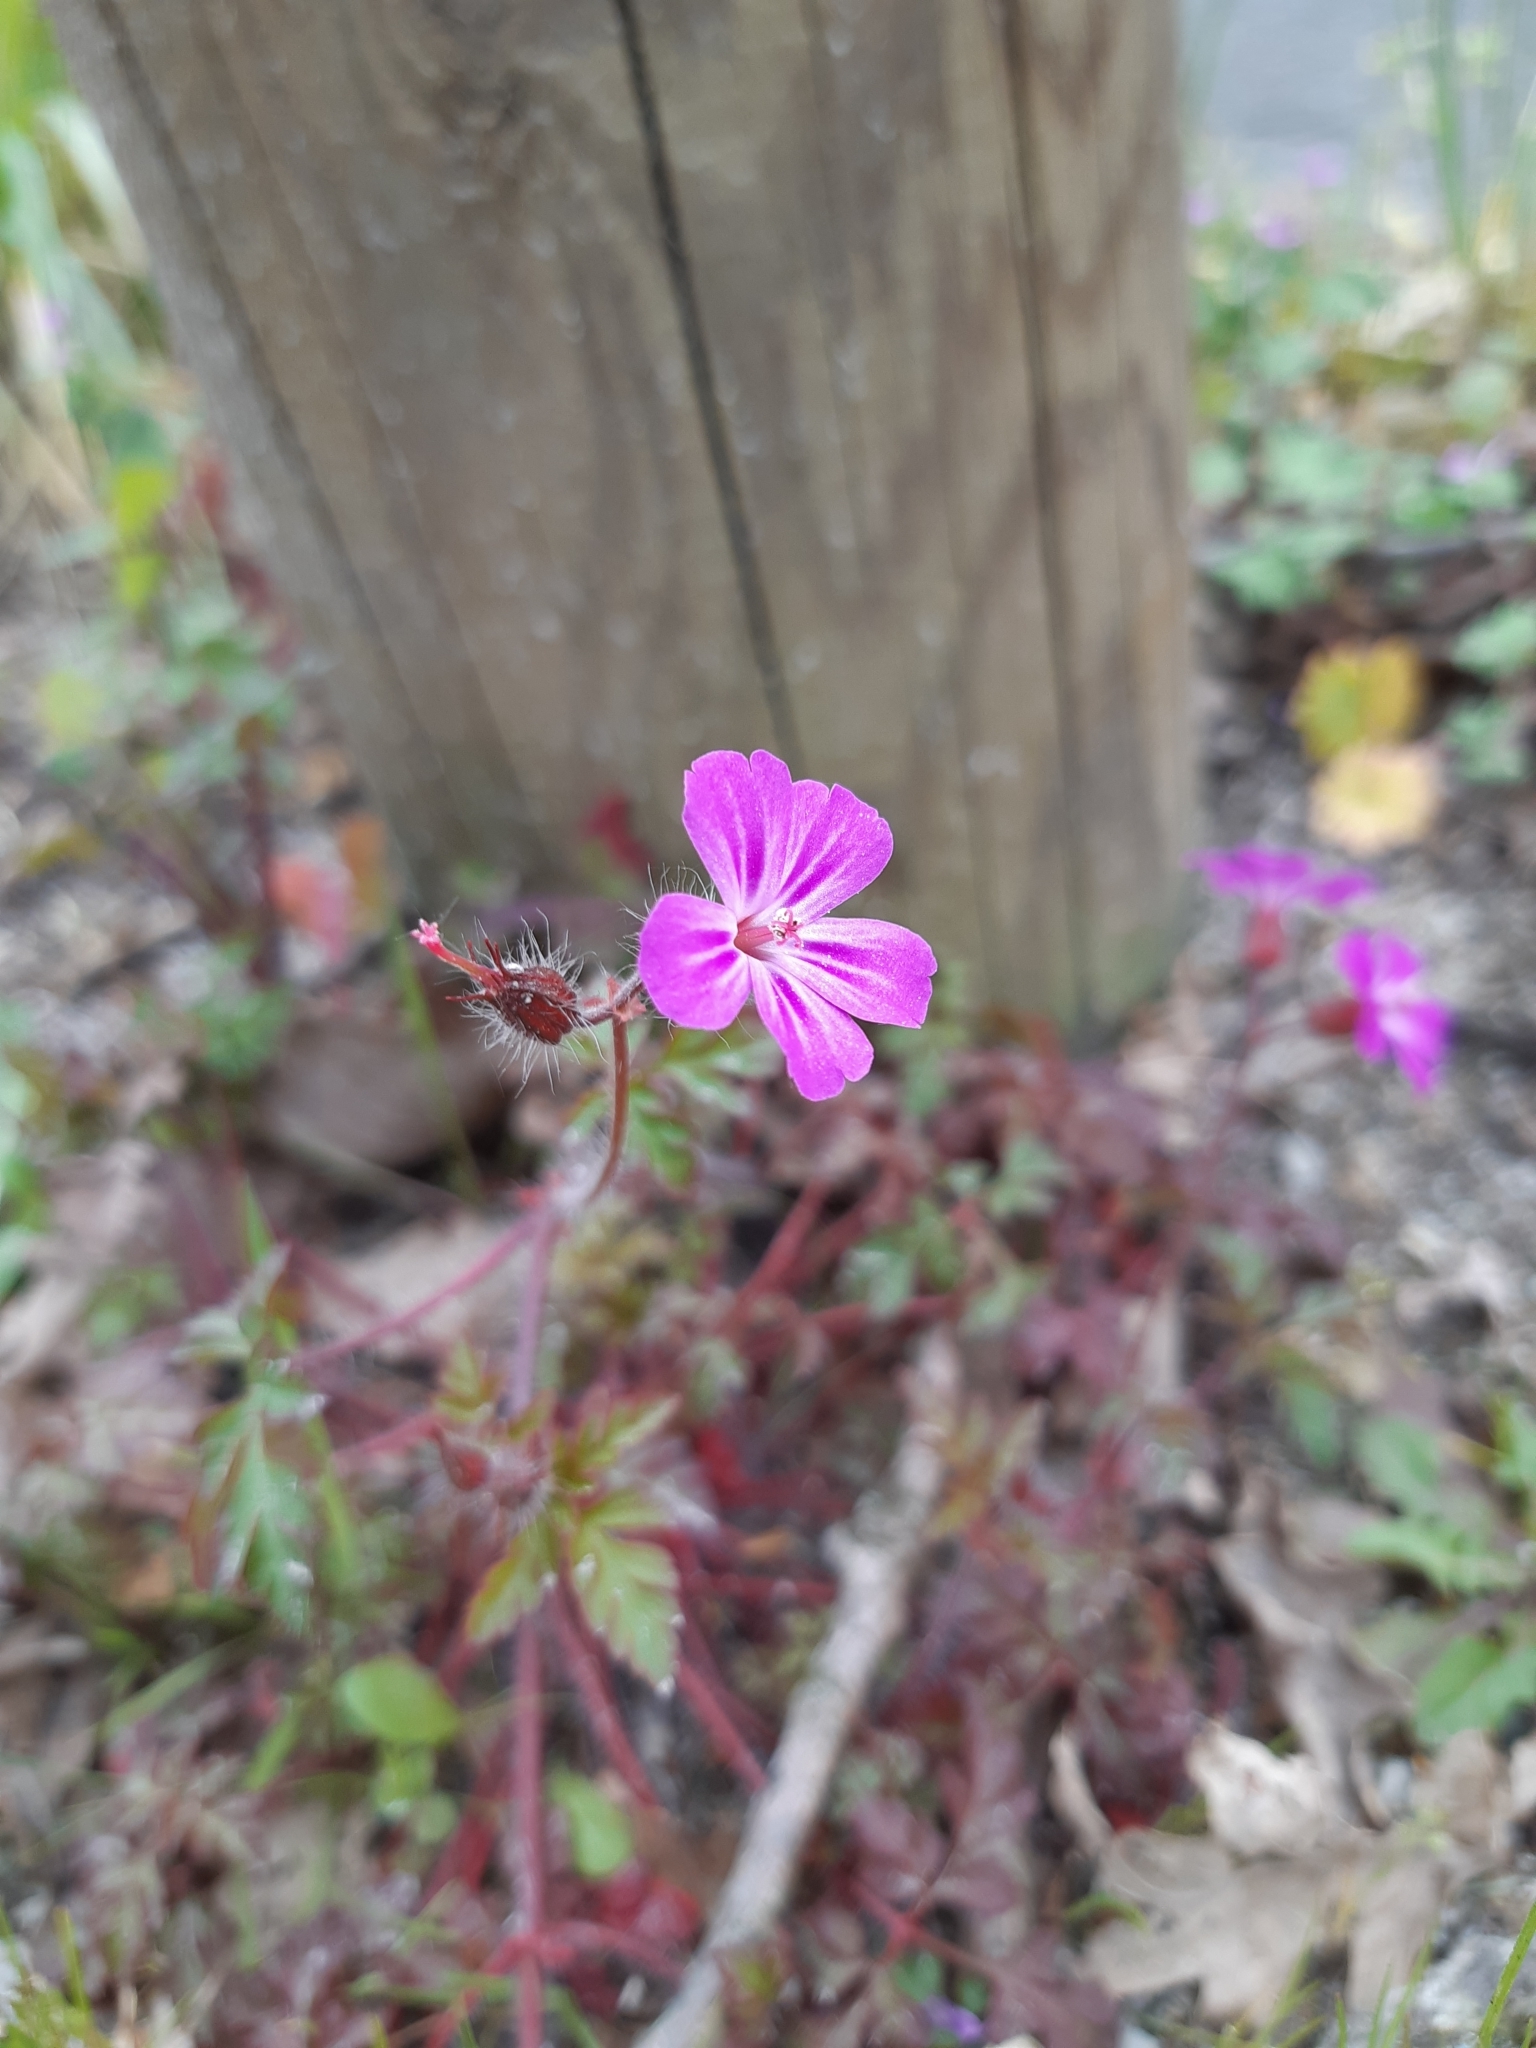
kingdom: Plantae
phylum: Tracheophyta
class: Magnoliopsida
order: Geraniales
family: Geraniaceae
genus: Geranium
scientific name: Geranium robertianum
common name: Herb-robert
